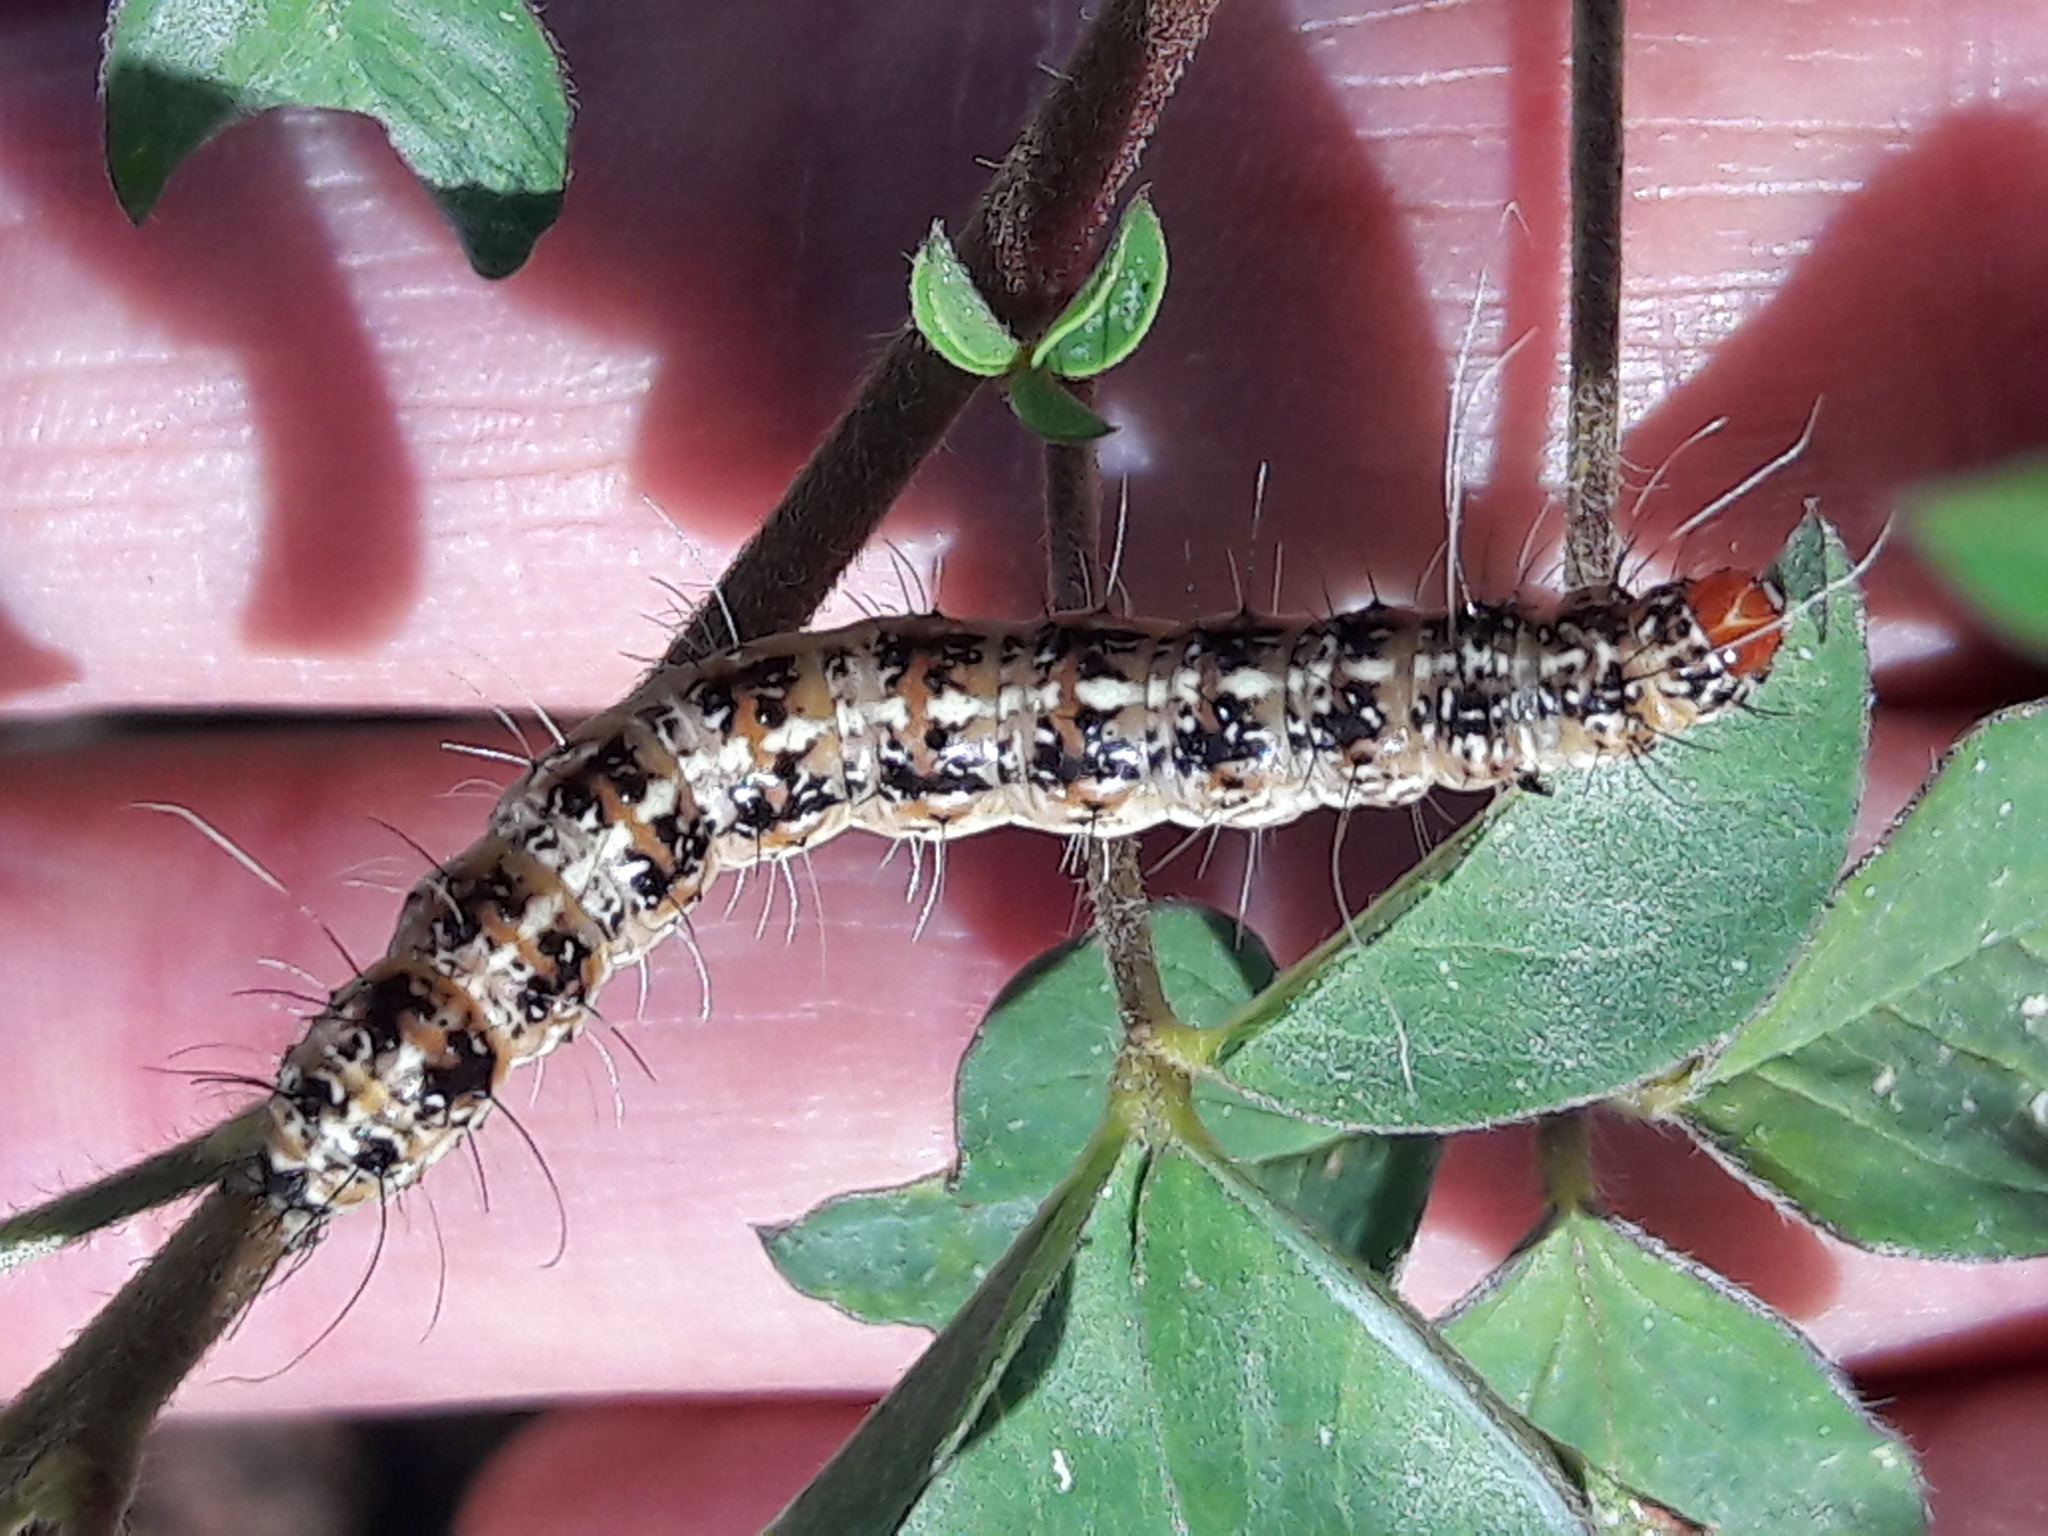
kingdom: Animalia
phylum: Arthropoda
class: Insecta
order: Lepidoptera
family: Erebidae
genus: Utetheisa
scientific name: Utetheisa ornatrix
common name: Beautiful utetheisa
